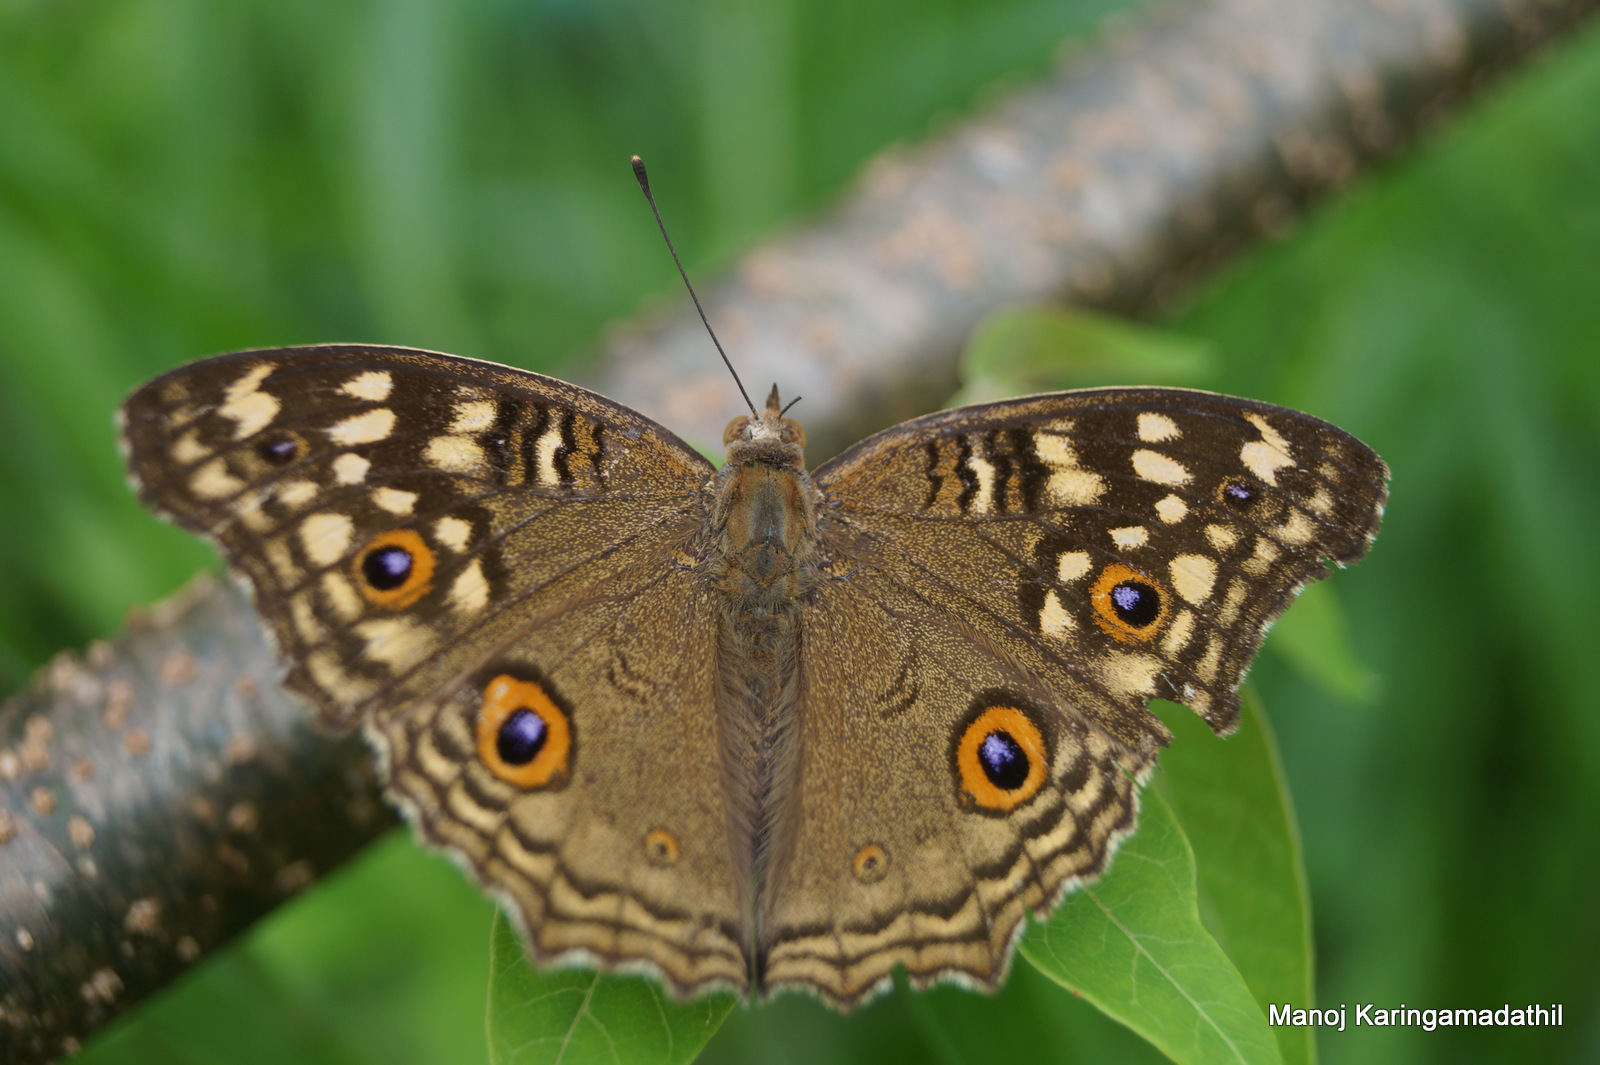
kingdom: Animalia
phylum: Arthropoda
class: Insecta
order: Lepidoptera
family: Nymphalidae
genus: Junonia
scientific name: Junonia lemonias
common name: Lemon pansy
